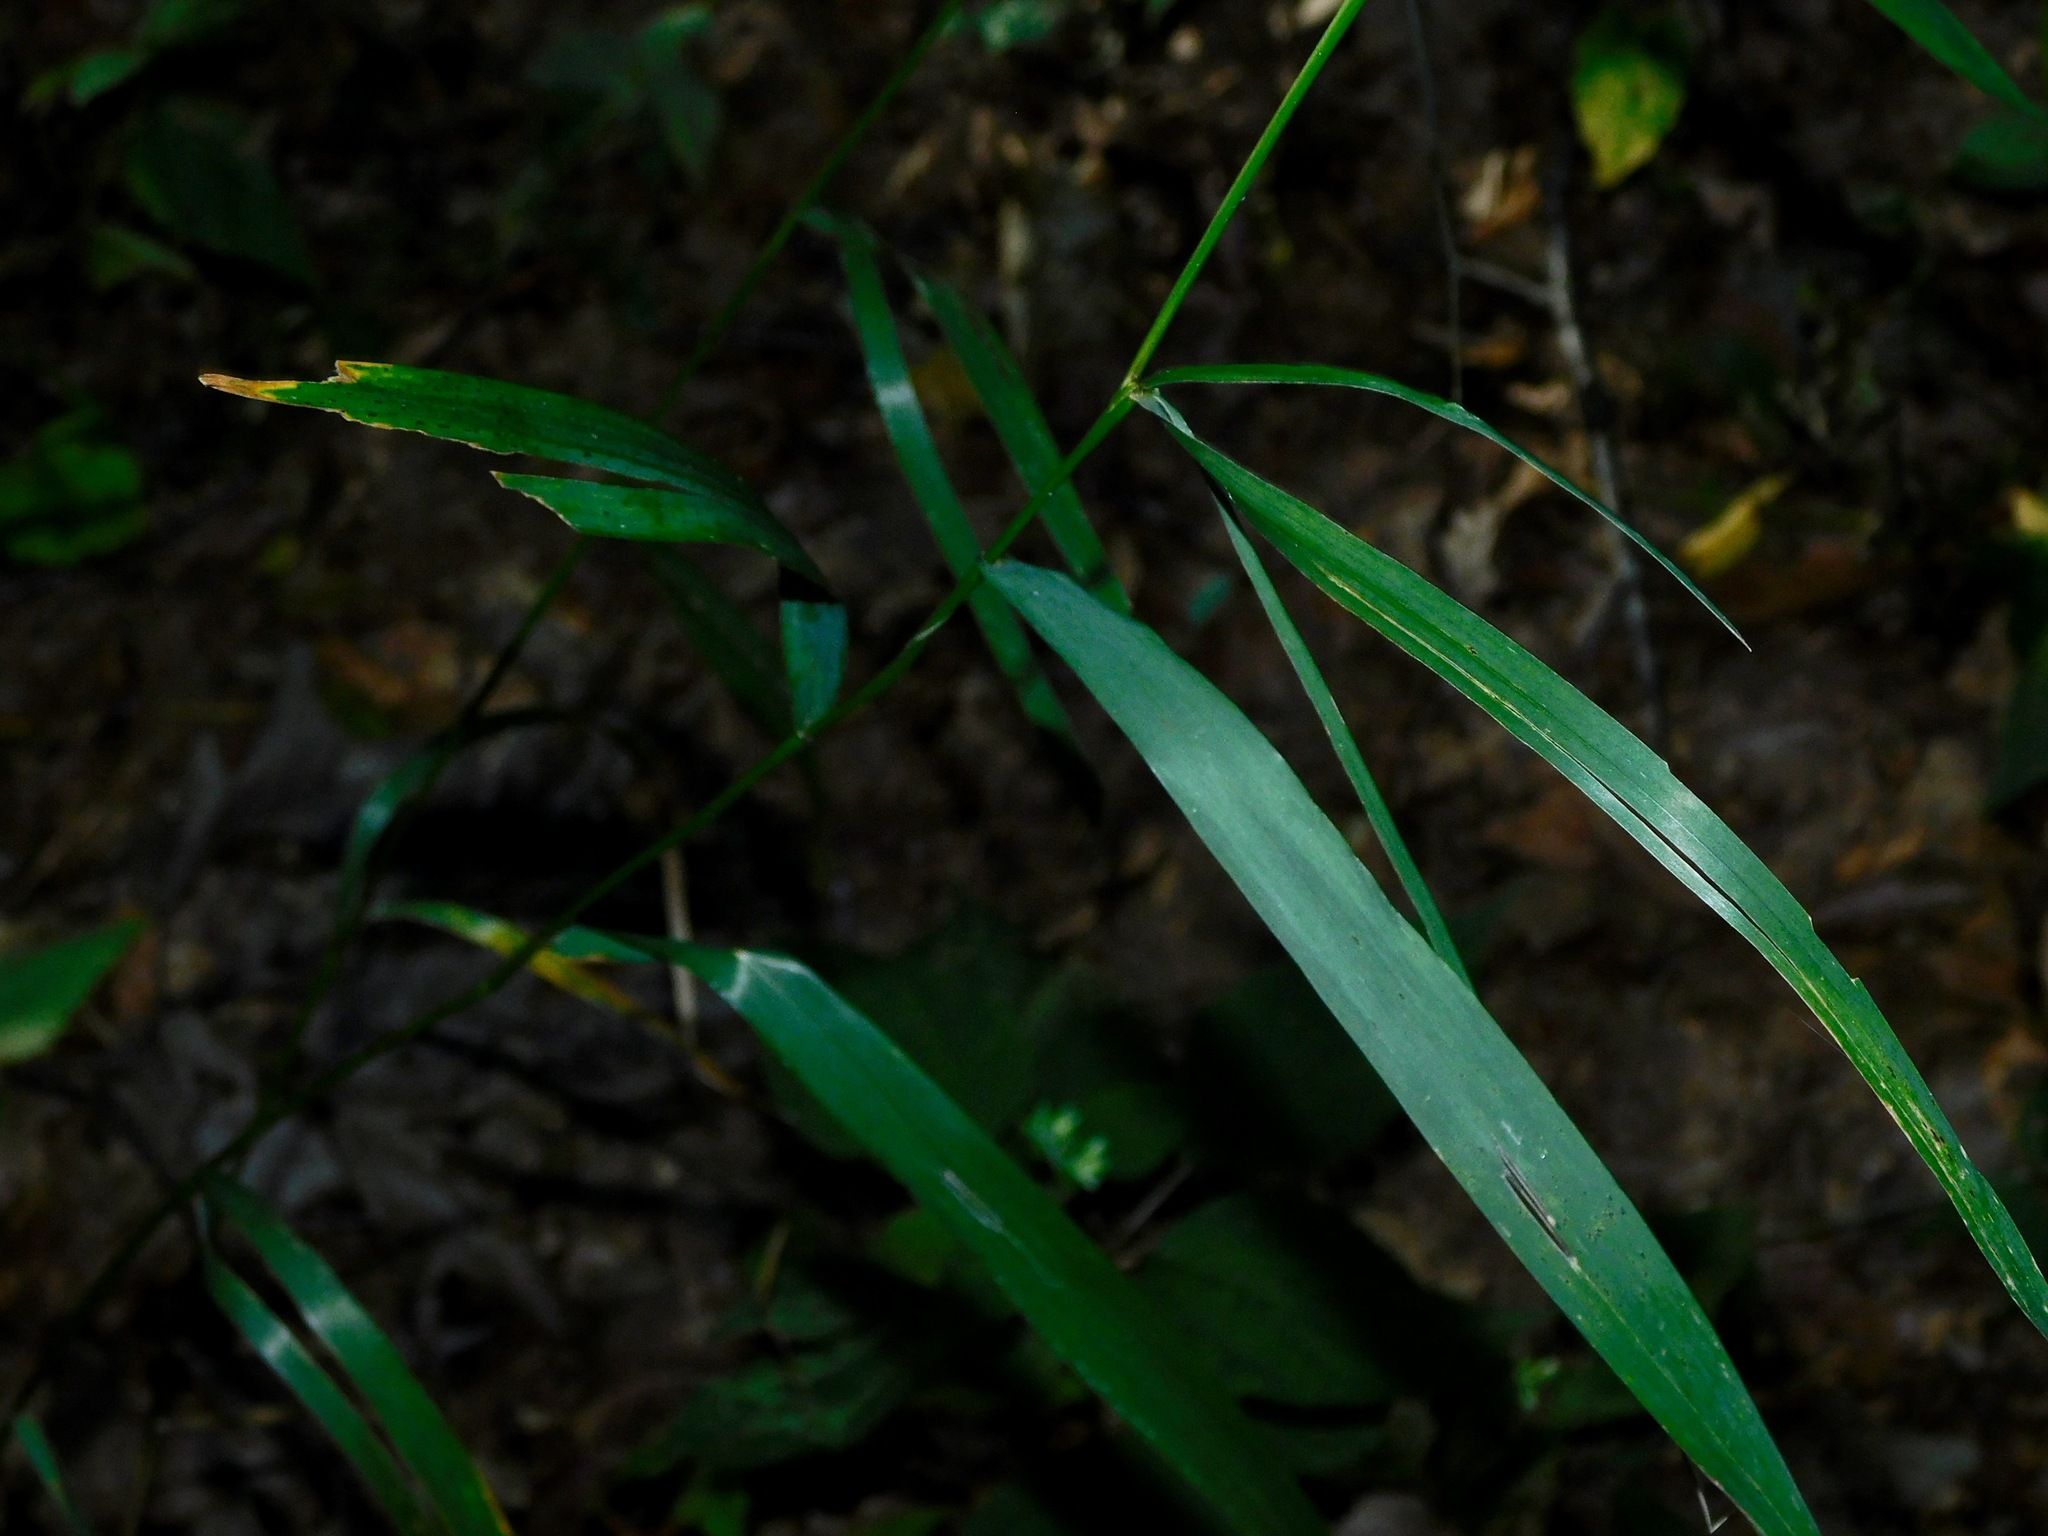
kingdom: Plantae
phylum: Tracheophyta
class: Liliopsida
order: Poales
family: Poaceae
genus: Elymus
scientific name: Elymus hystrix
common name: Bottlebrush grass
